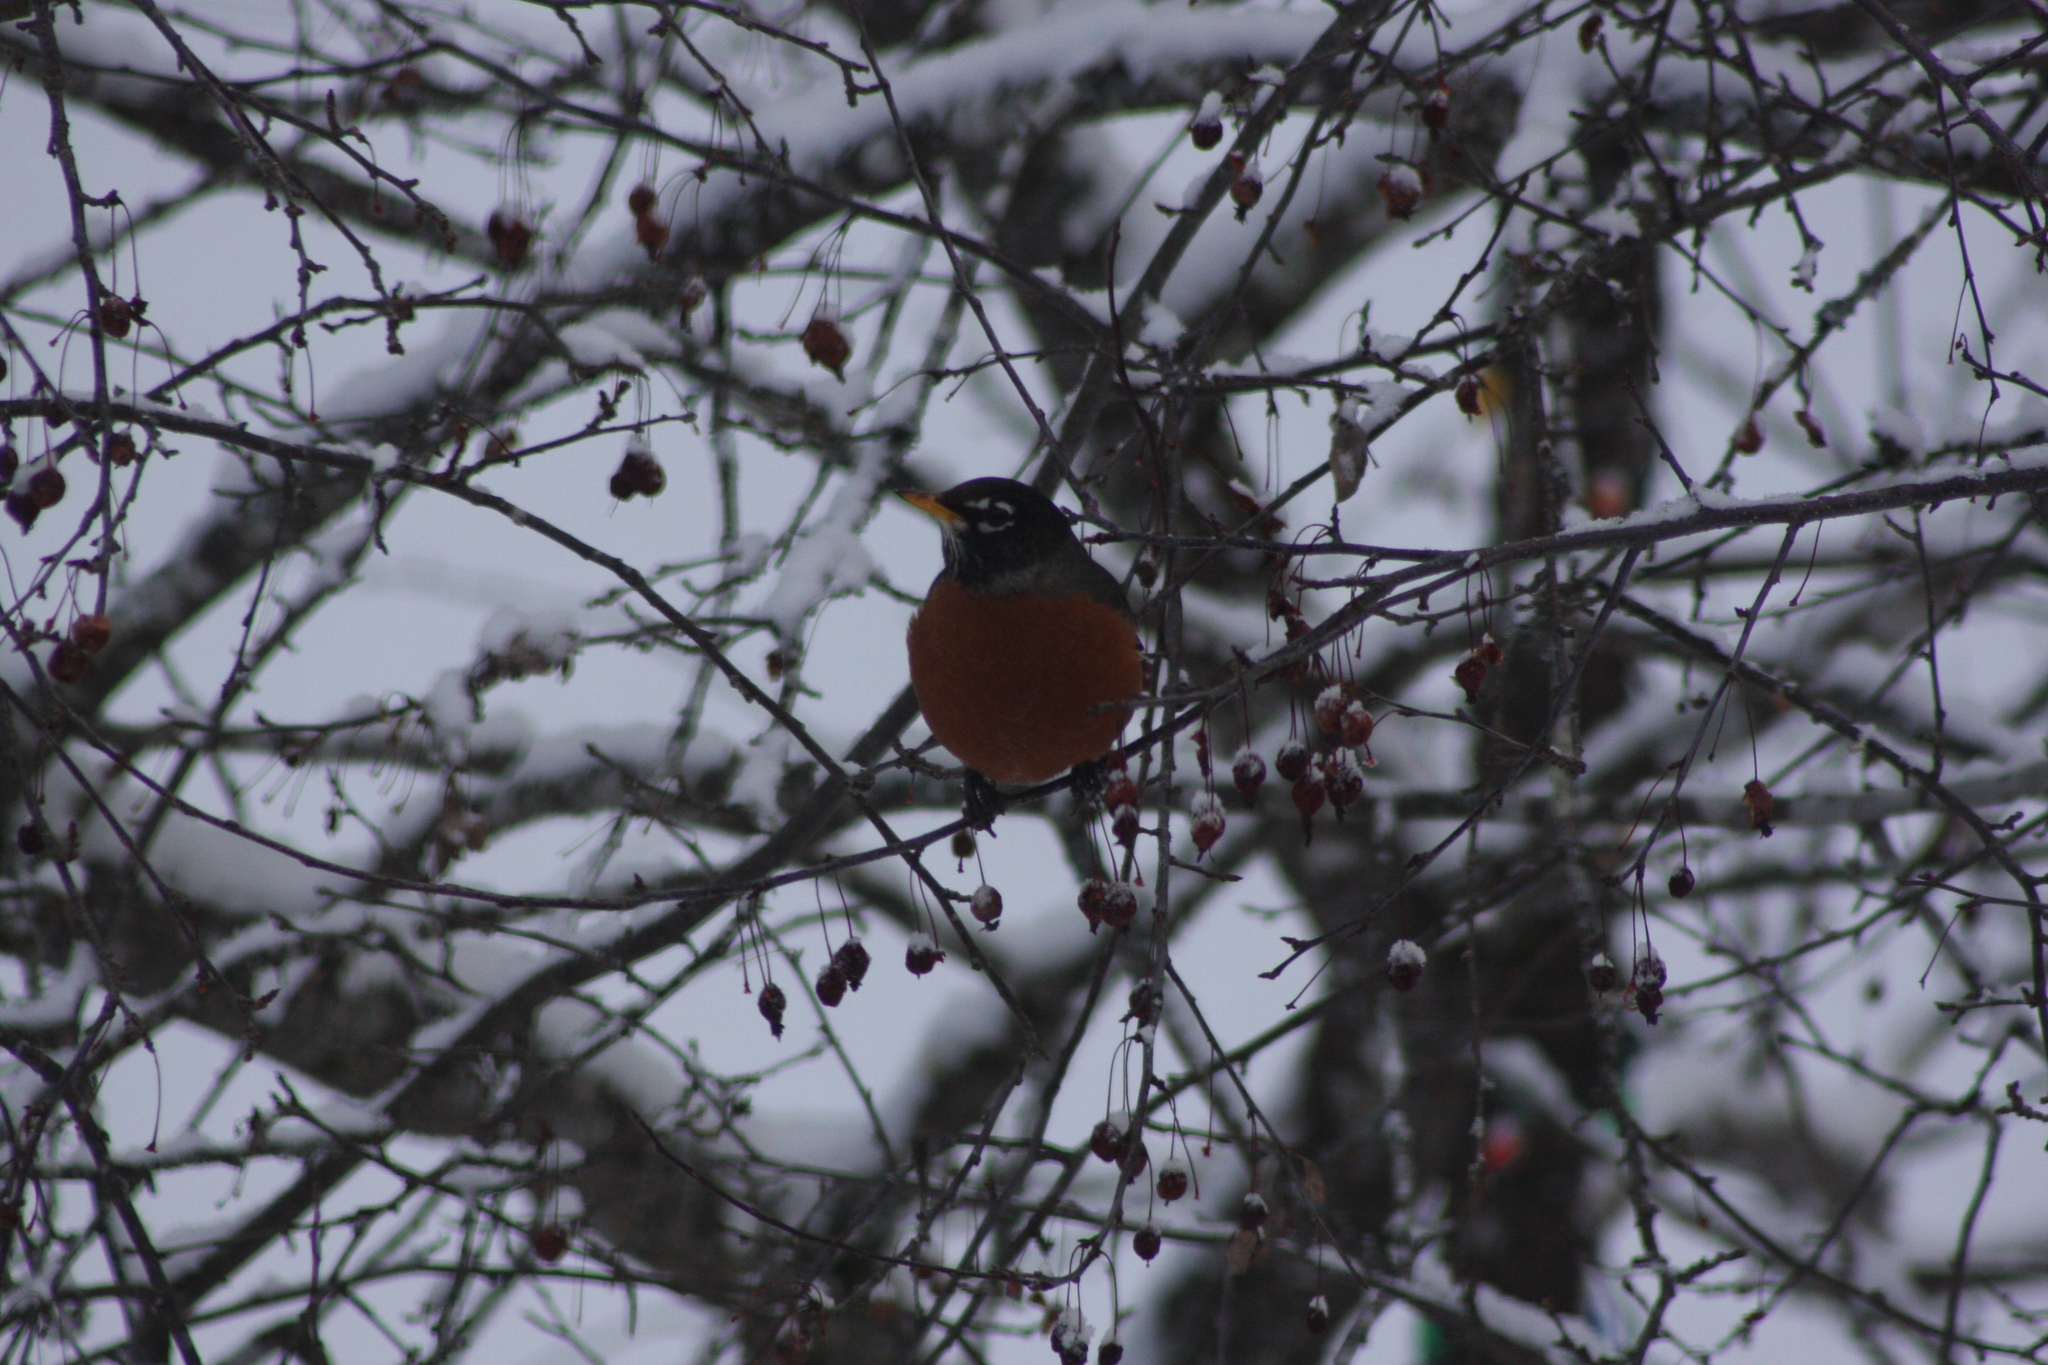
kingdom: Animalia
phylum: Chordata
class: Aves
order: Passeriformes
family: Turdidae
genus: Turdus
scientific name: Turdus migratorius
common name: American robin
